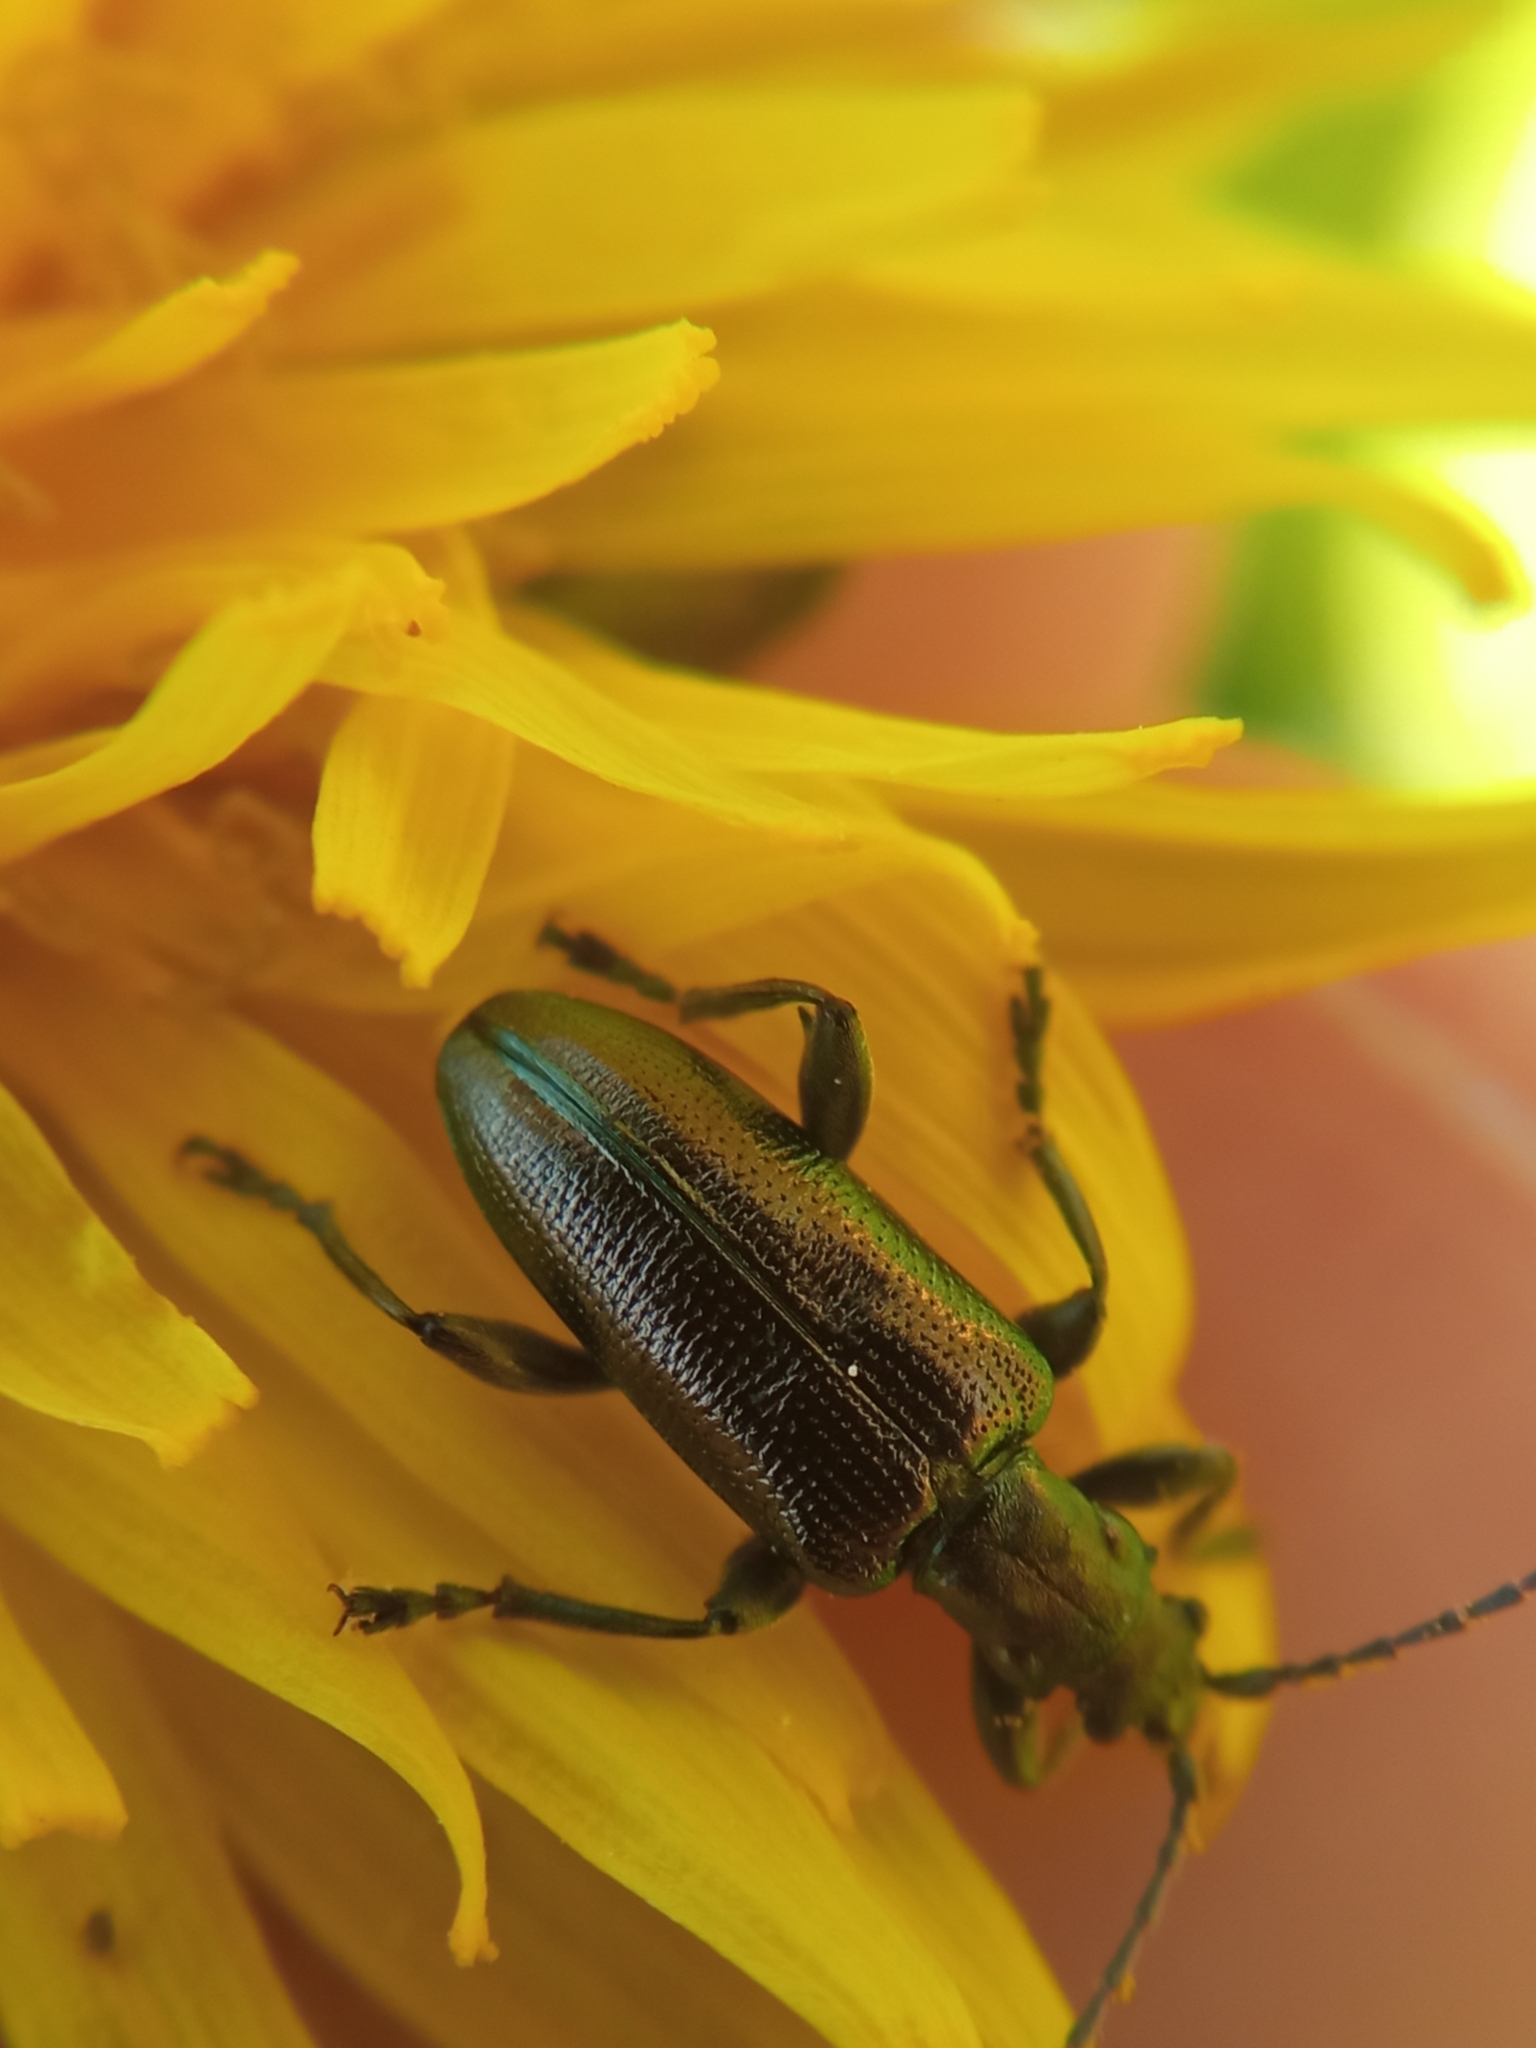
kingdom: Animalia
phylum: Arthropoda
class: Insecta
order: Coleoptera
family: Chrysomelidae
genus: Plateumaris
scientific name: Plateumaris sericea
